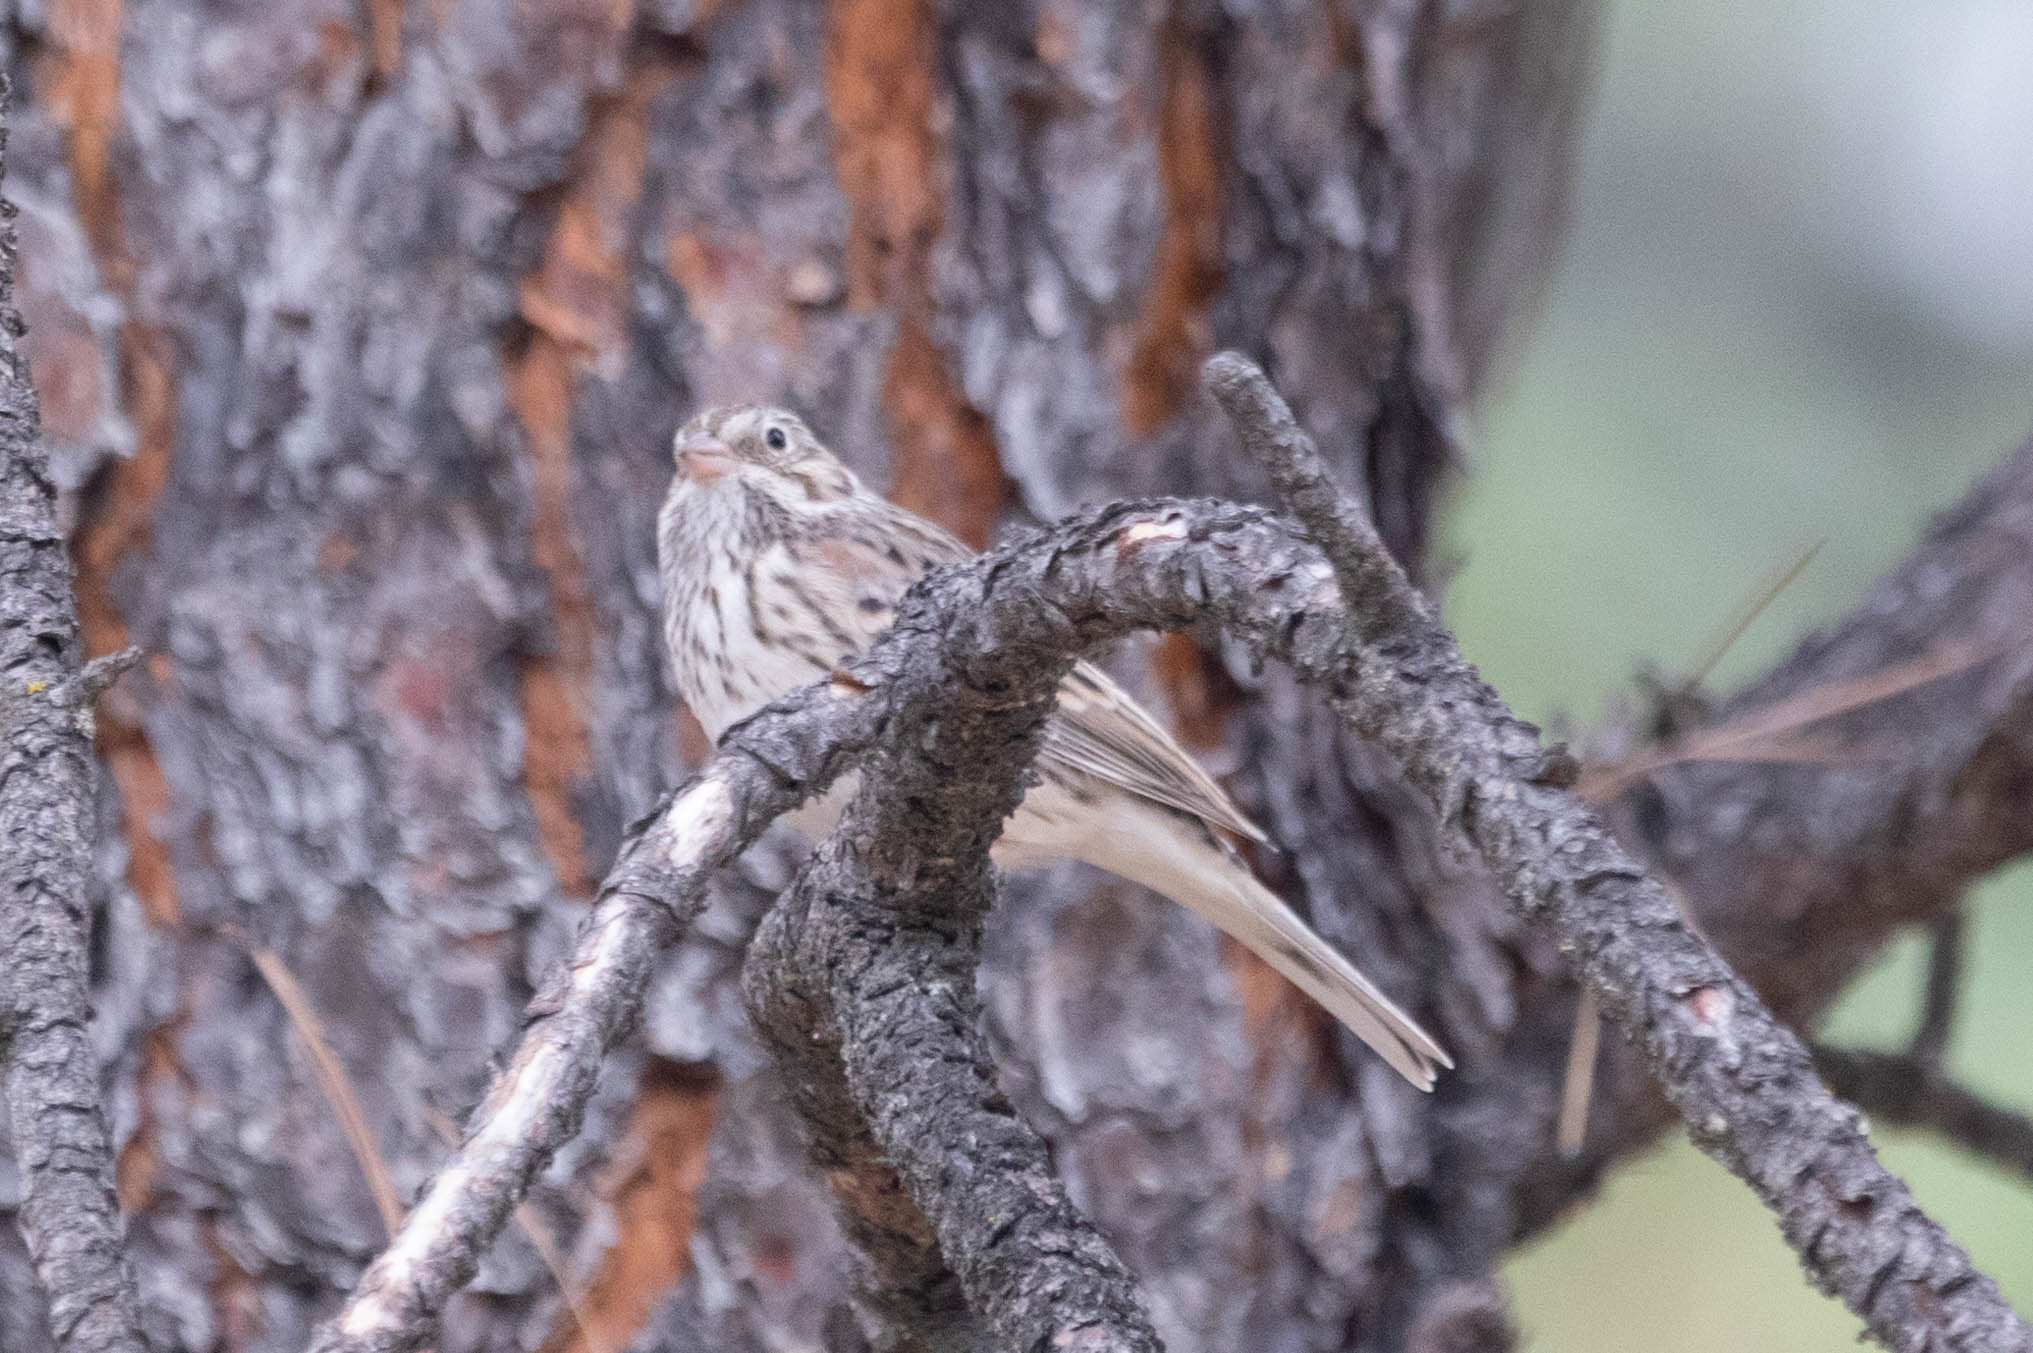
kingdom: Animalia
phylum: Chordata
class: Aves
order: Passeriformes
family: Passerellidae
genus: Pooecetes
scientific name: Pooecetes gramineus
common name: Vesper sparrow
